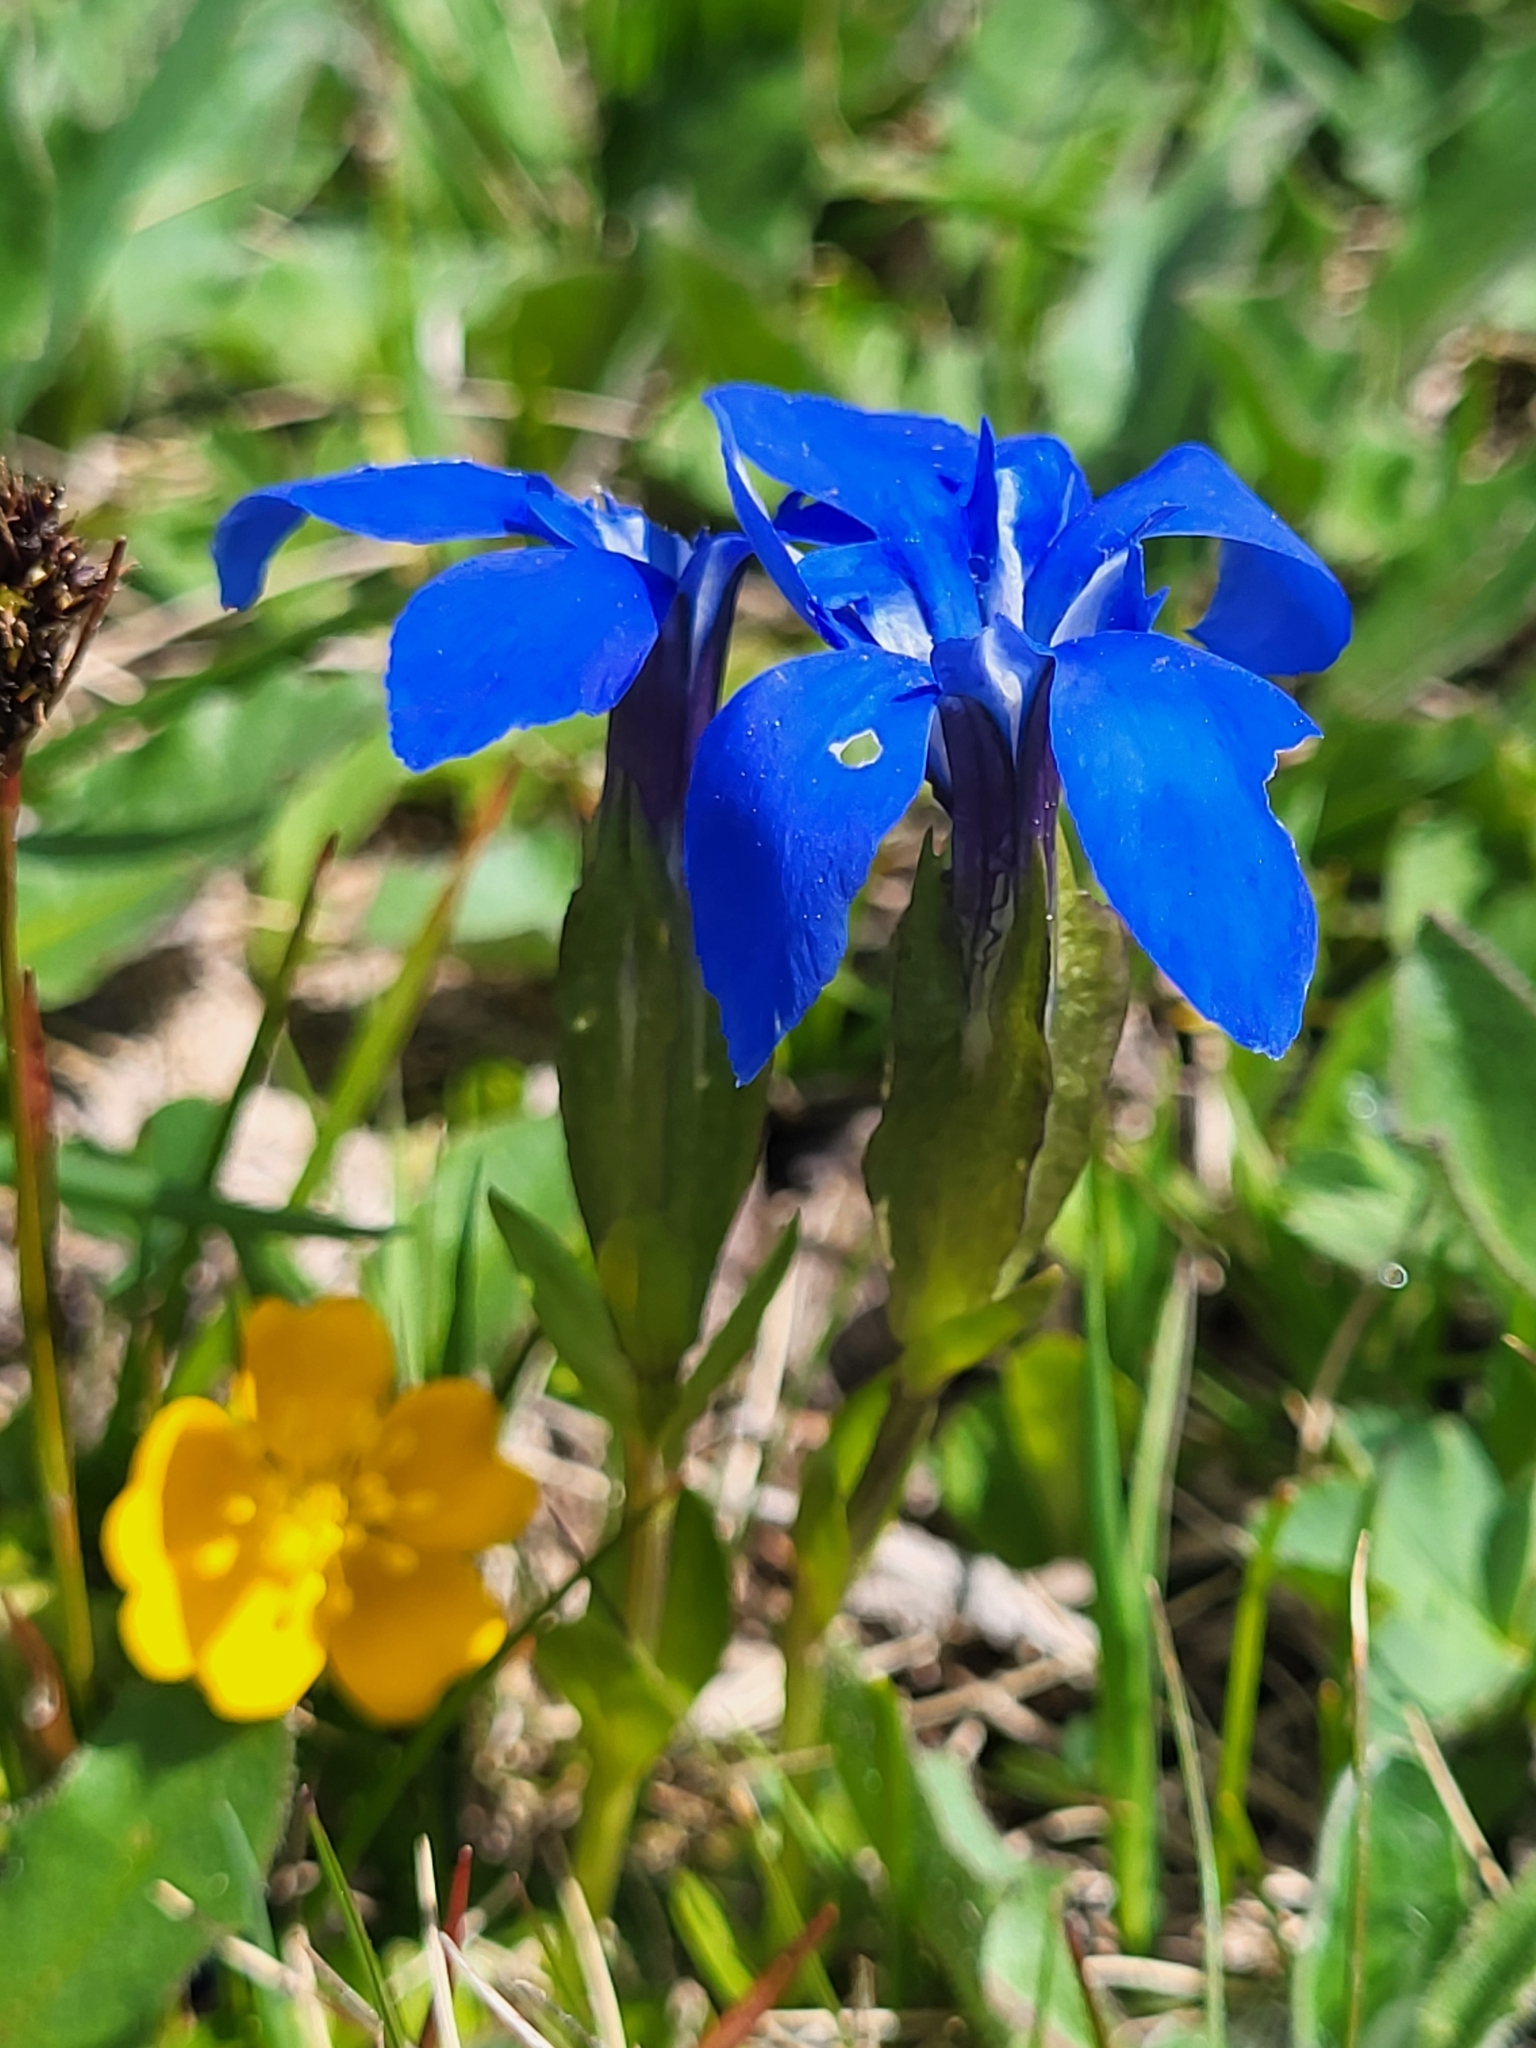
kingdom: Plantae
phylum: Tracheophyta
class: Magnoliopsida
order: Gentianales
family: Gentianaceae
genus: Gentiana
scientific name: Gentiana verna
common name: Spring gentian
